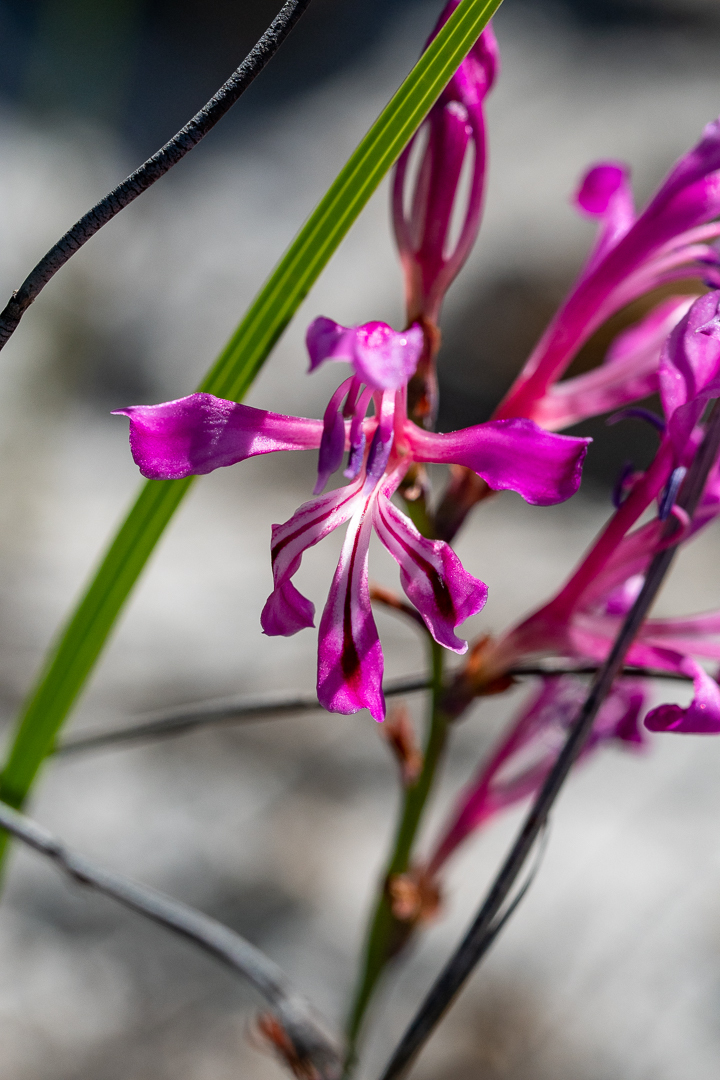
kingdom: Plantae
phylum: Tracheophyta
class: Liliopsida
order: Asparagales
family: Iridaceae
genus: Tritoniopsis
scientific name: Tritoniopsis lata
